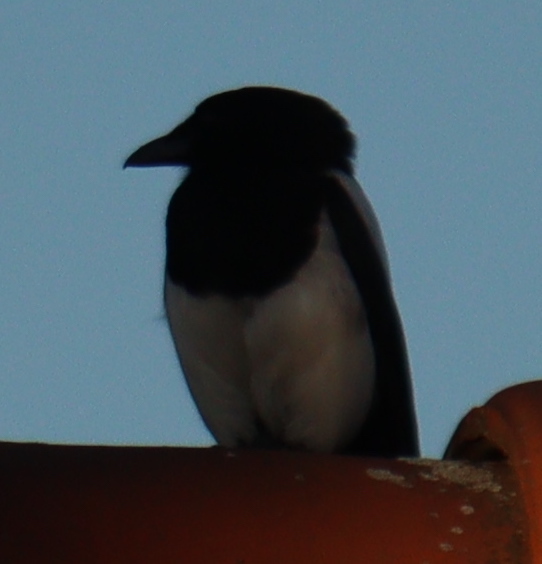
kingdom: Animalia
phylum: Chordata
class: Aves
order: Passeriformes
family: Corvidae
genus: Pica
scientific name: Pica pica
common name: Eurasian magpie
